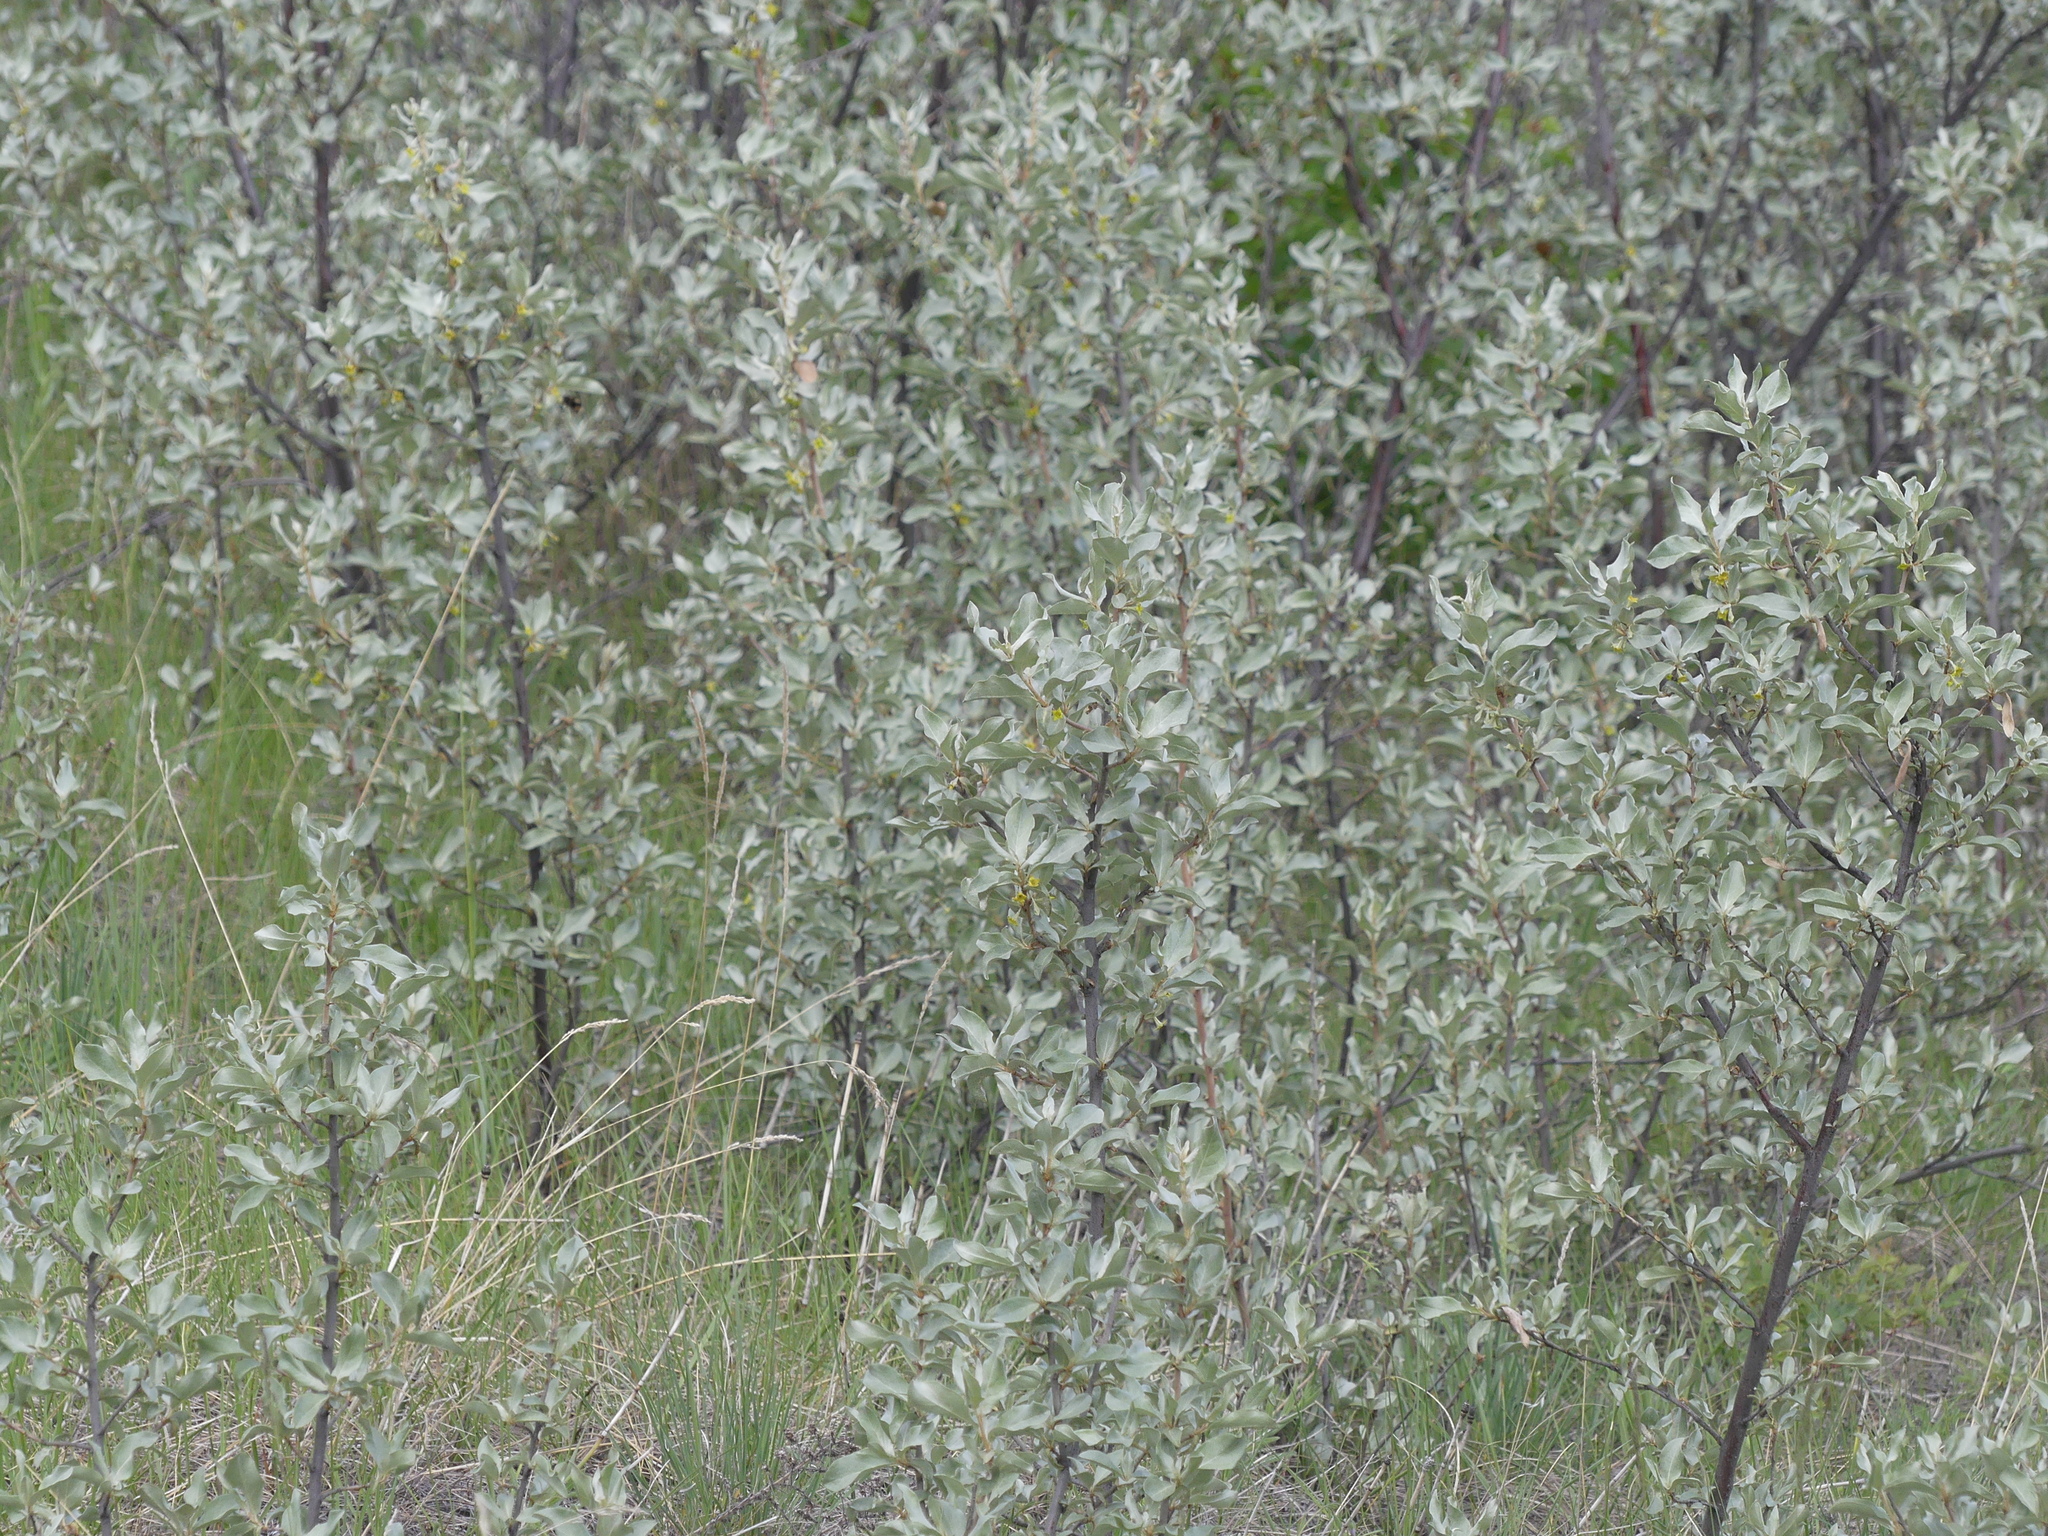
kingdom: Plantae
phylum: Tracheophyta
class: Magnoliopsida
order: Rosales
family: Elaeagnaceae
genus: Elaeagnus
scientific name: Elaeagnus commutata
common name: Silverberry
